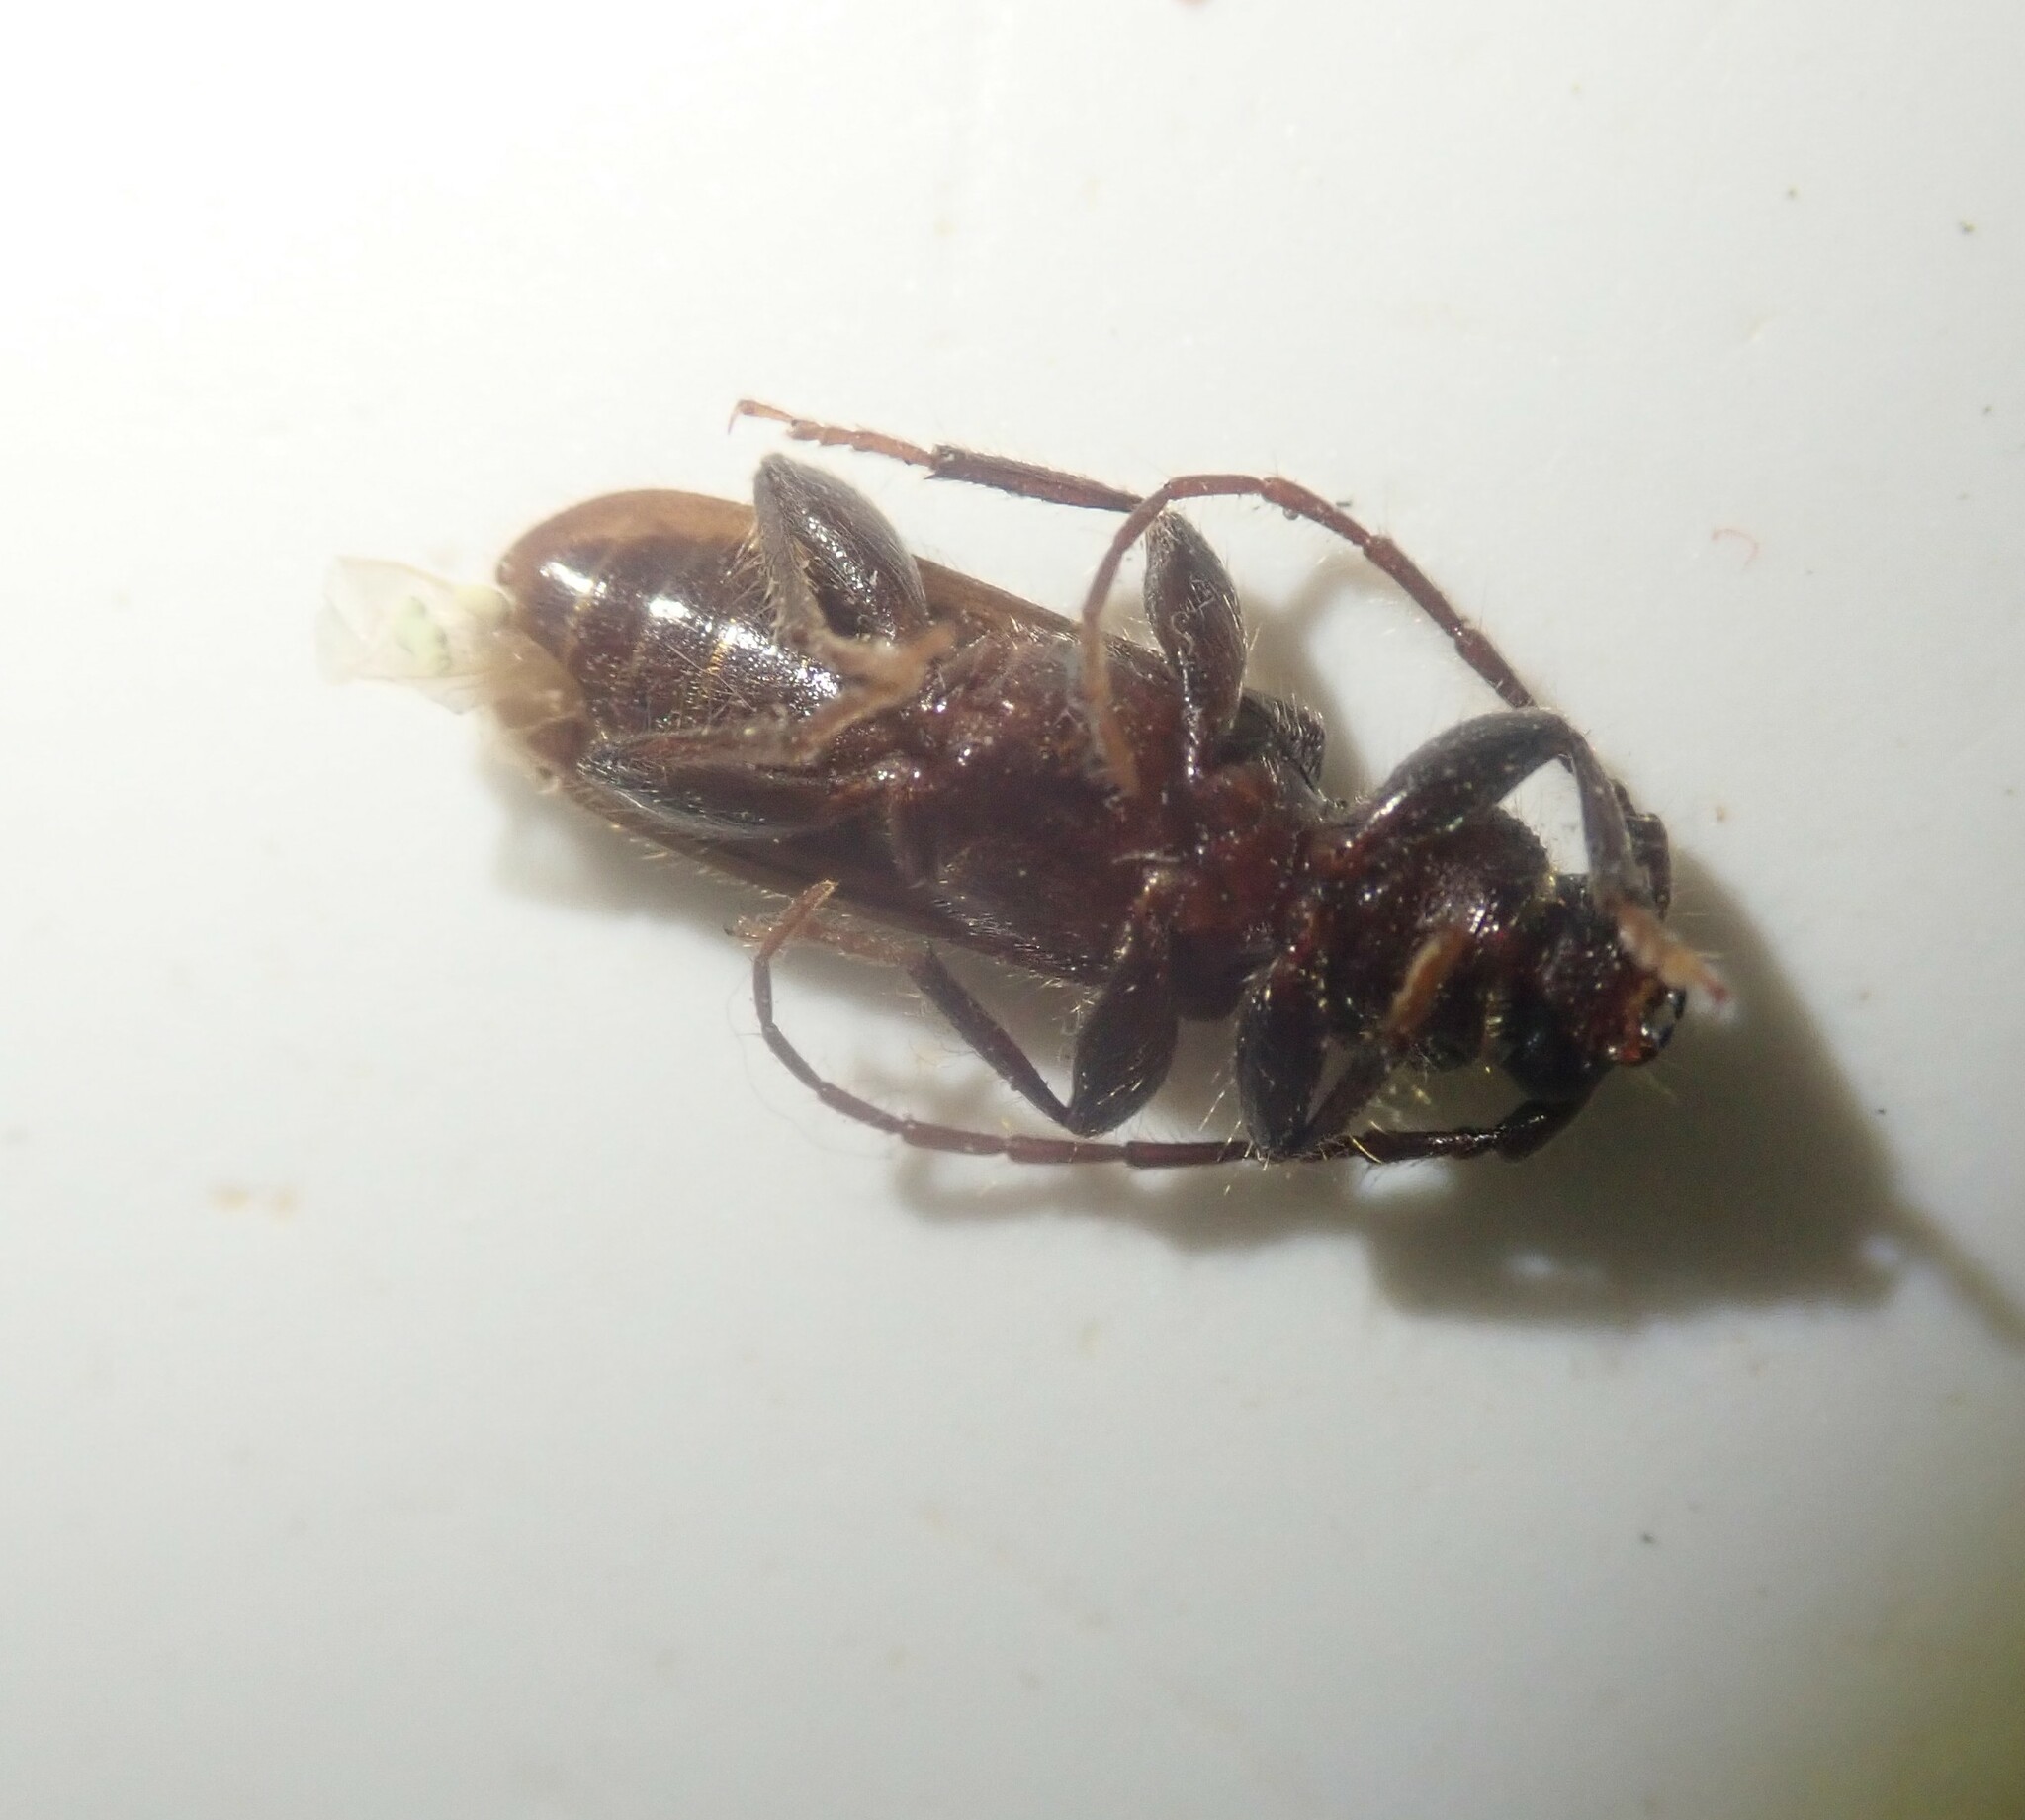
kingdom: Animalia
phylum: Arthropoda
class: Insecta
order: Coleoptera
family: Cerambycidae
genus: Zamium
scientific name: Zamium incultum
